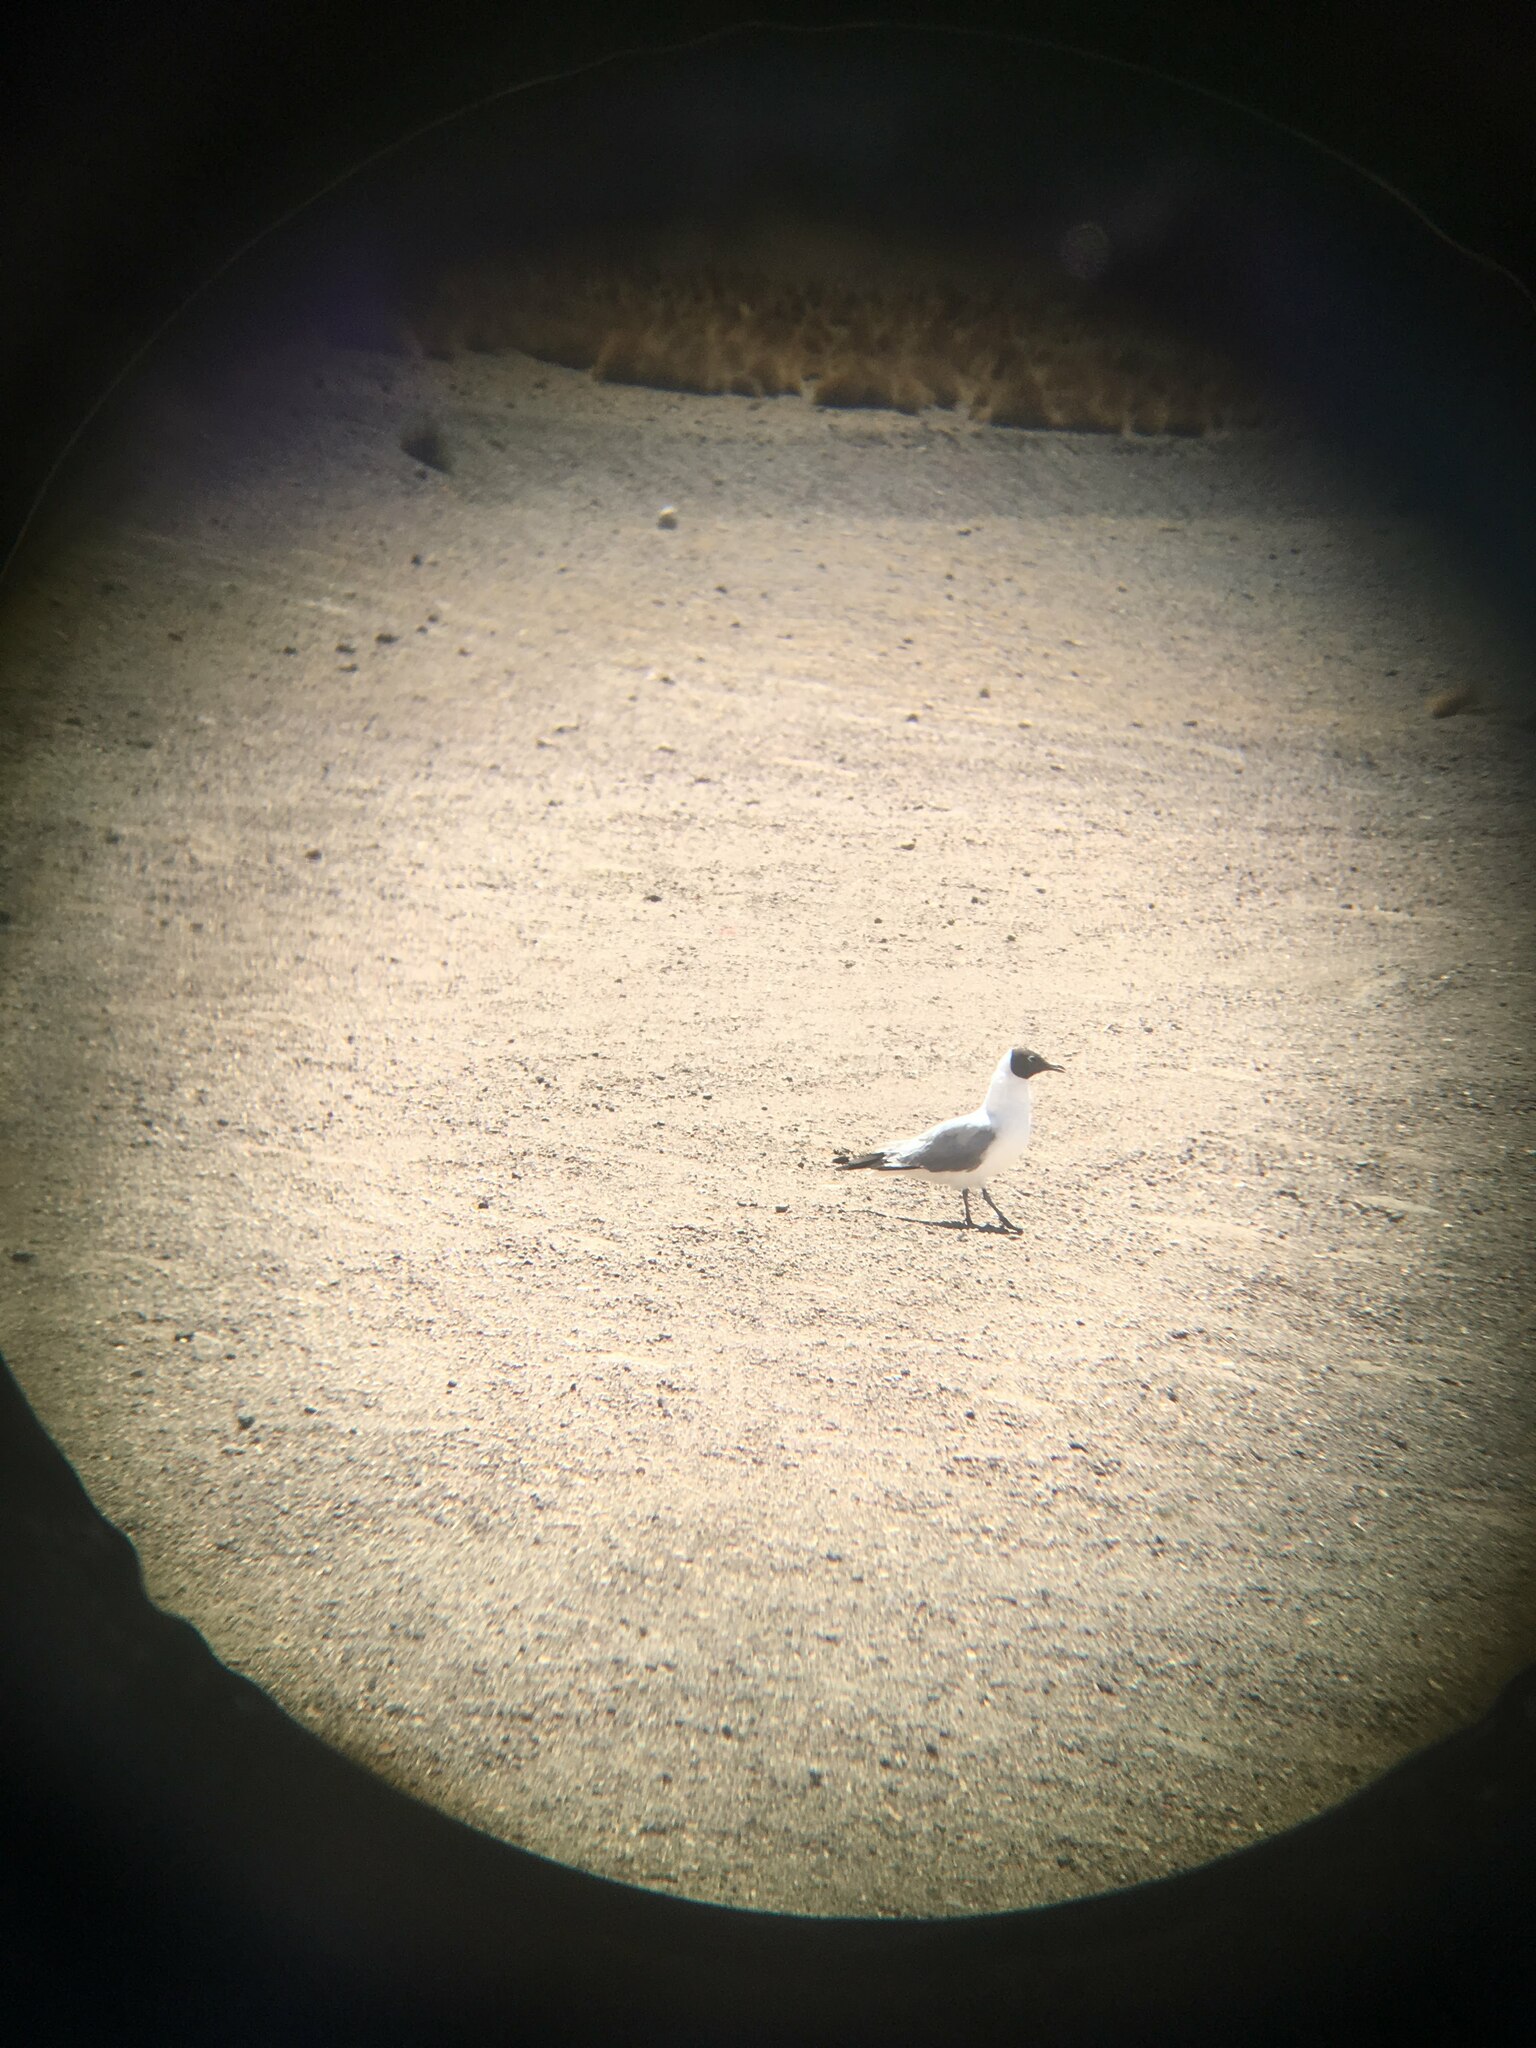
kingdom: Animalia
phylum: Chordata
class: Aves
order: Charadriiformes
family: Laridae
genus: Chroicocephalus
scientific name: Chroicocephalus serranus
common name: Andean gull
